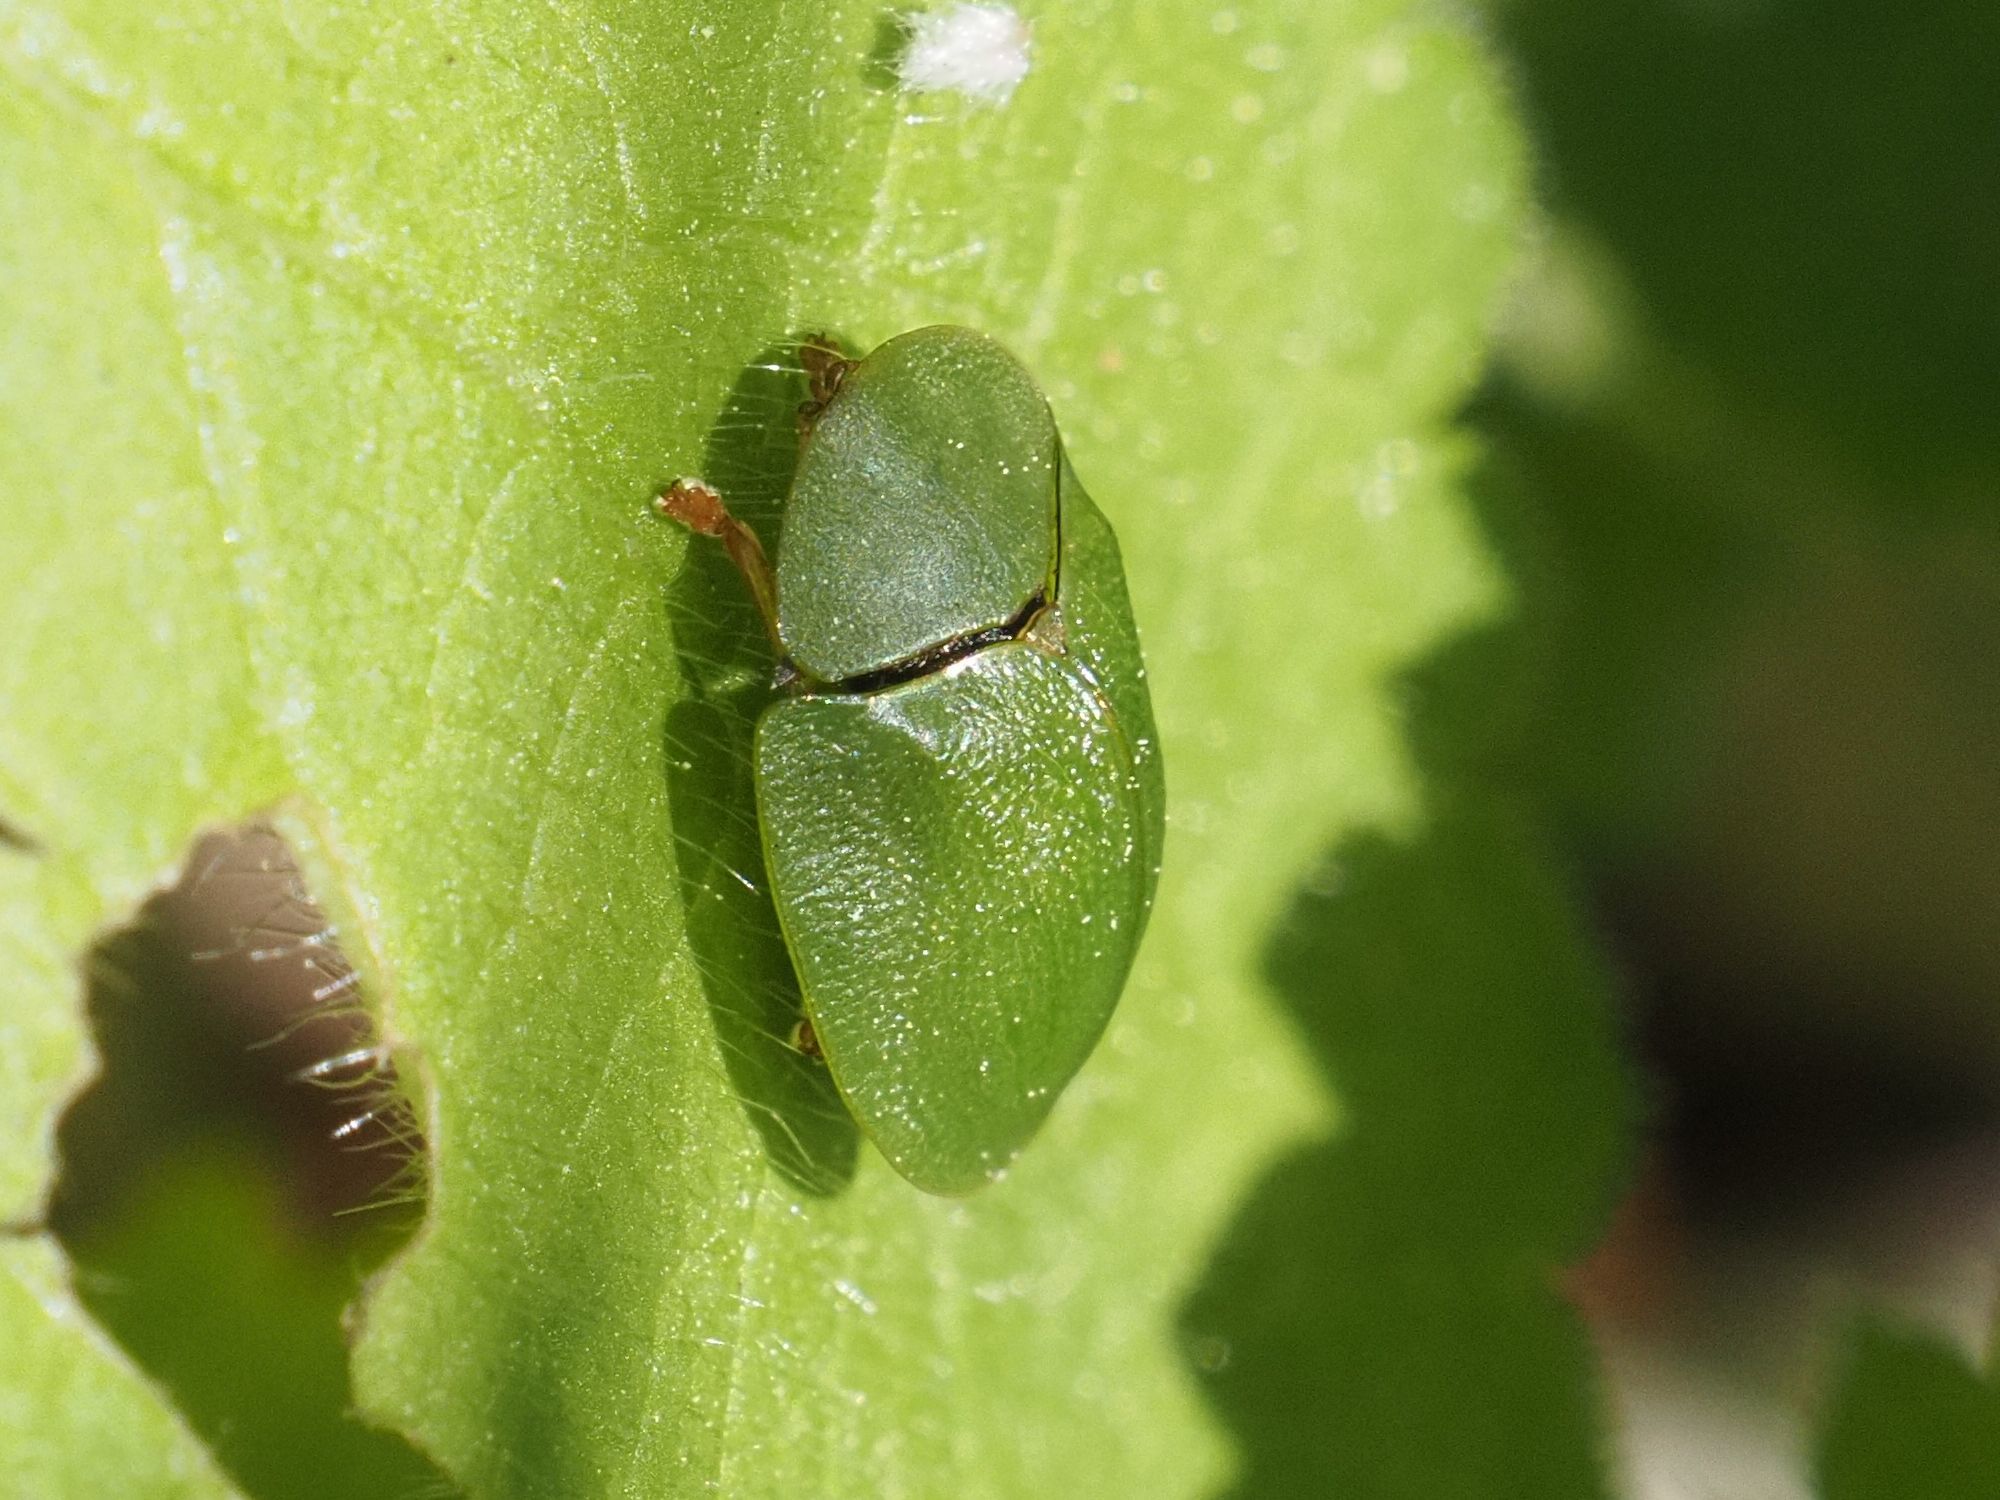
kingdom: Animalia
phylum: Arthropoda
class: Insecta
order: Coleoptera
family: Chrysomelidae
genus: Cassida
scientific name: Cassida viridis
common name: Green tortoise beetle
